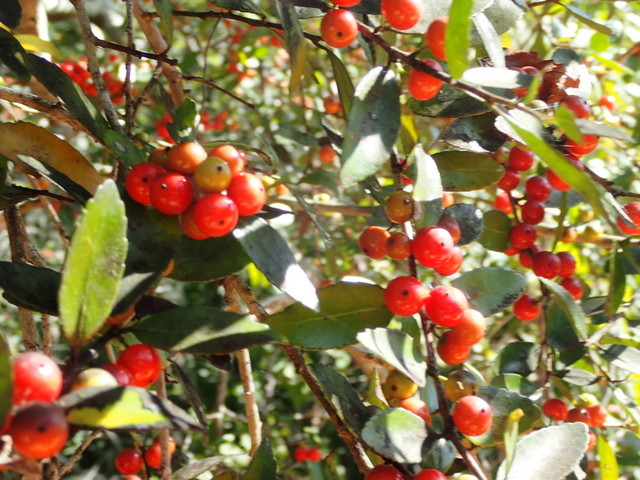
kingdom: Plantae
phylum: Tracheophyta
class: Magnoliopsida
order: Aquifoliales
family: Aquifoliaceae
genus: Ilex
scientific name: Ilex vomitoria
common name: Yaupon holly
